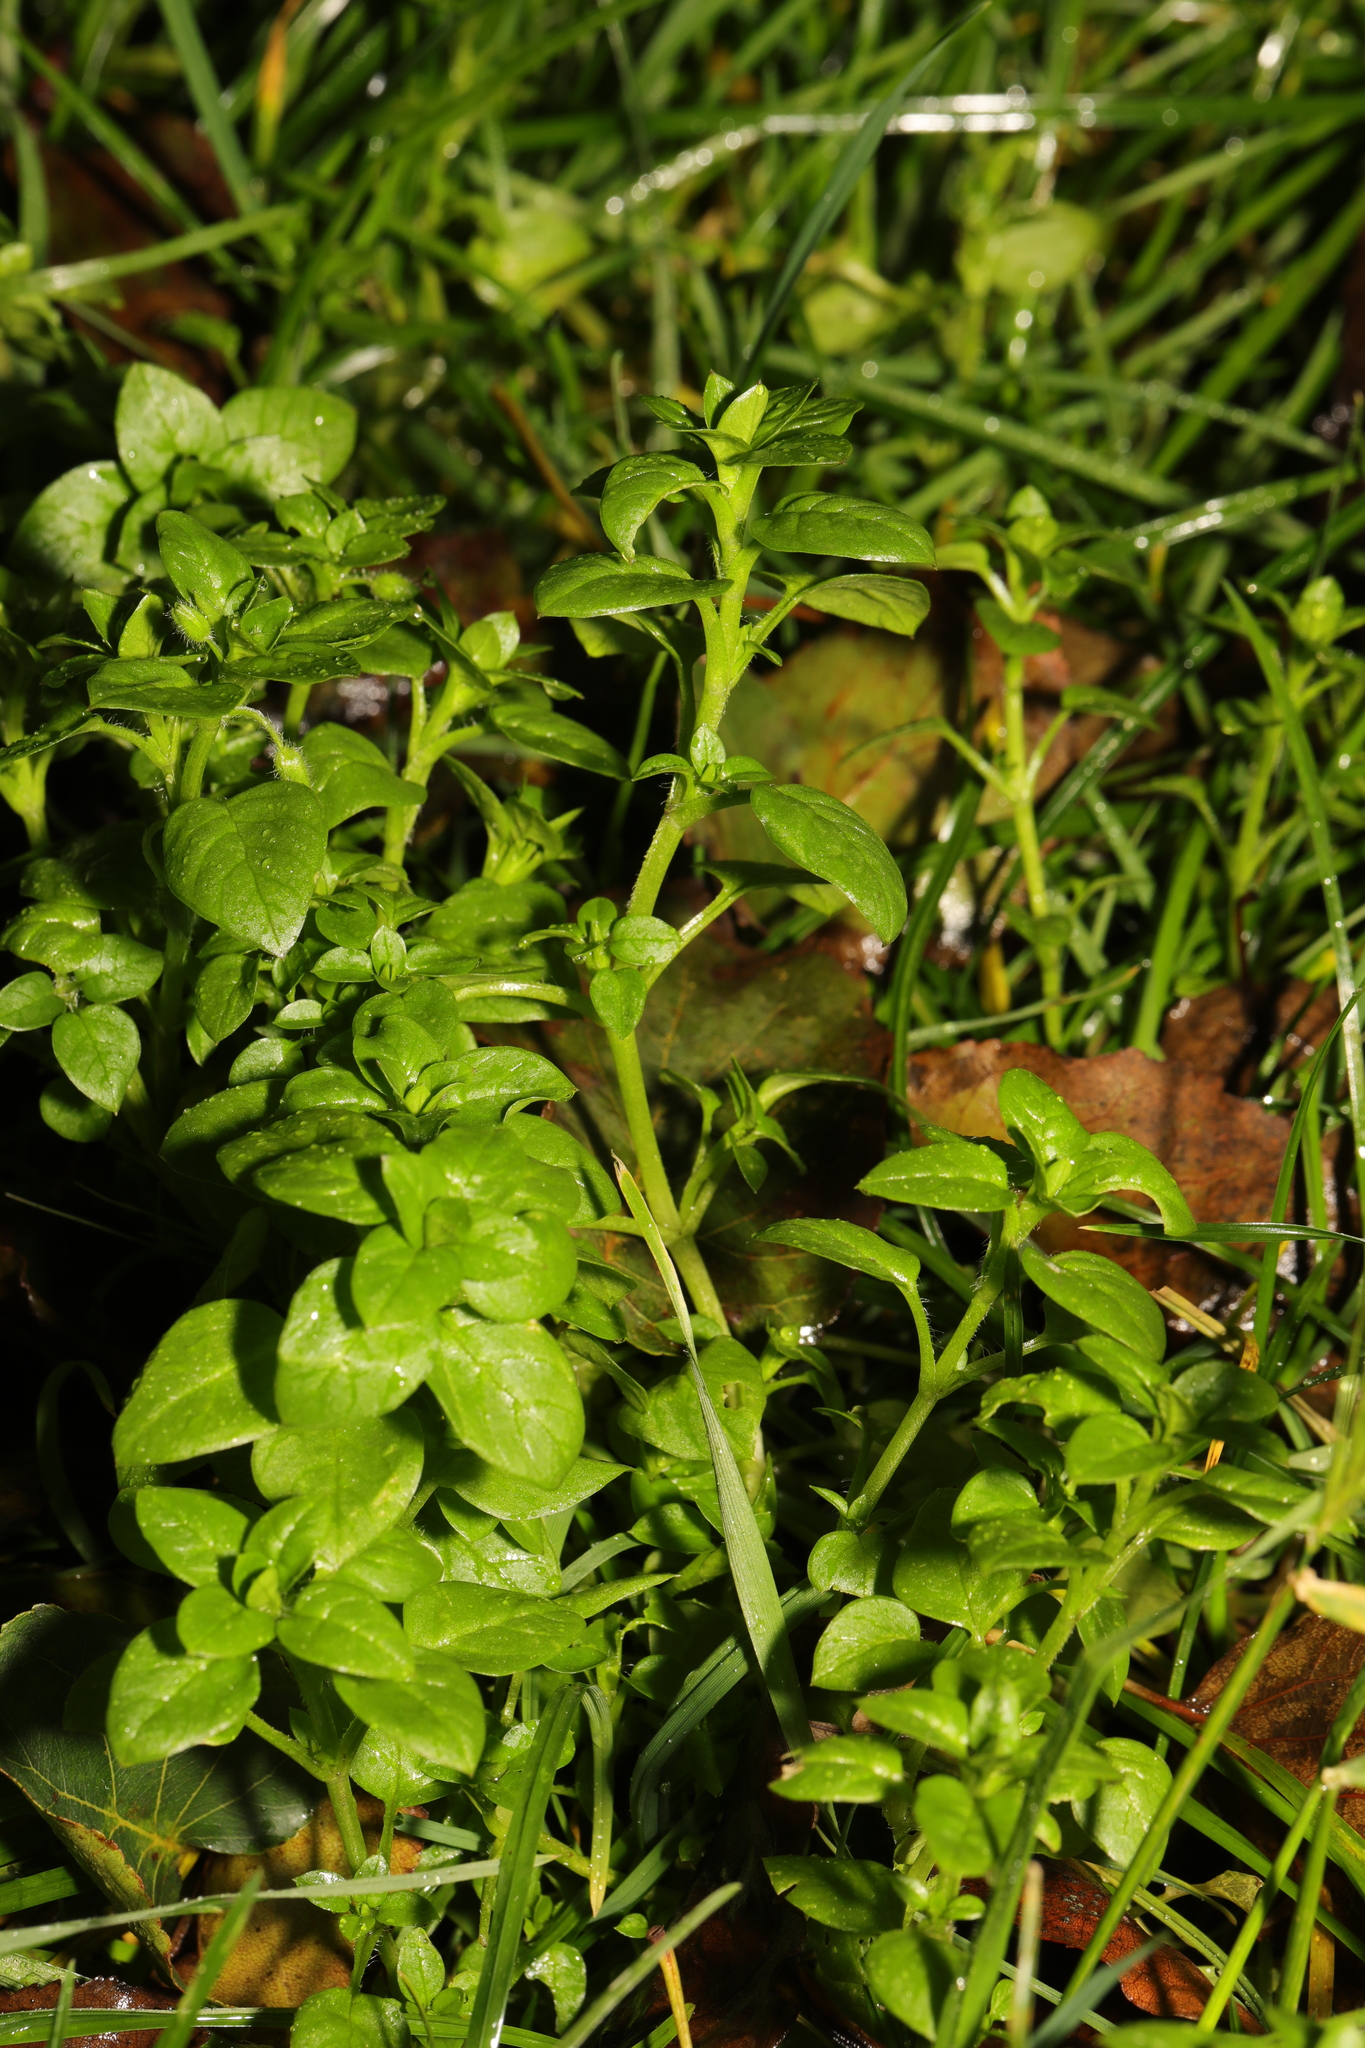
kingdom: Plantae
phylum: Tracheophyta
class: Magnoliopsida
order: Caryophyllales
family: Caryophyllaceae
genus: Stellaria
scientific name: Stellaria media
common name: Common chickweed
